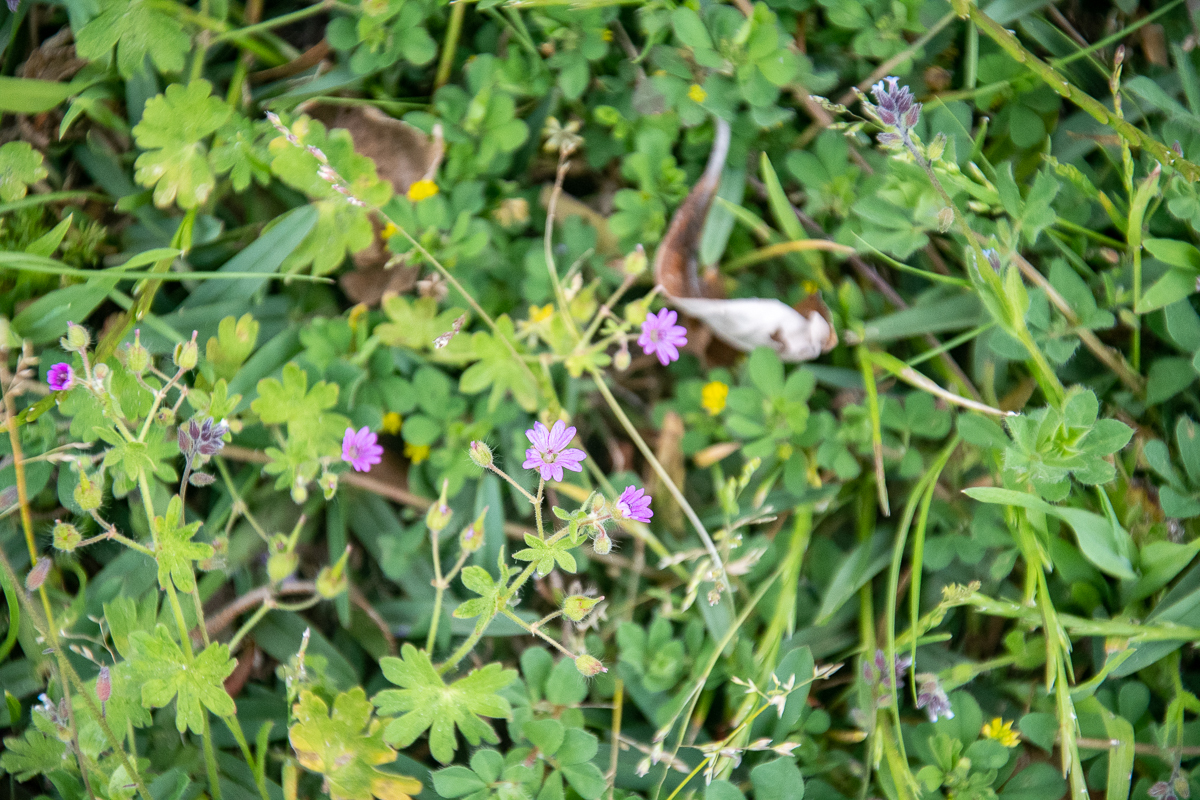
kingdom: Plantae
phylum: Tracheophyta
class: Magnoliopsida
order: Geraniales
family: Geraniaceae
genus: Geranium
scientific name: Geranium molle
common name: Dove's-foot crane's-bill
